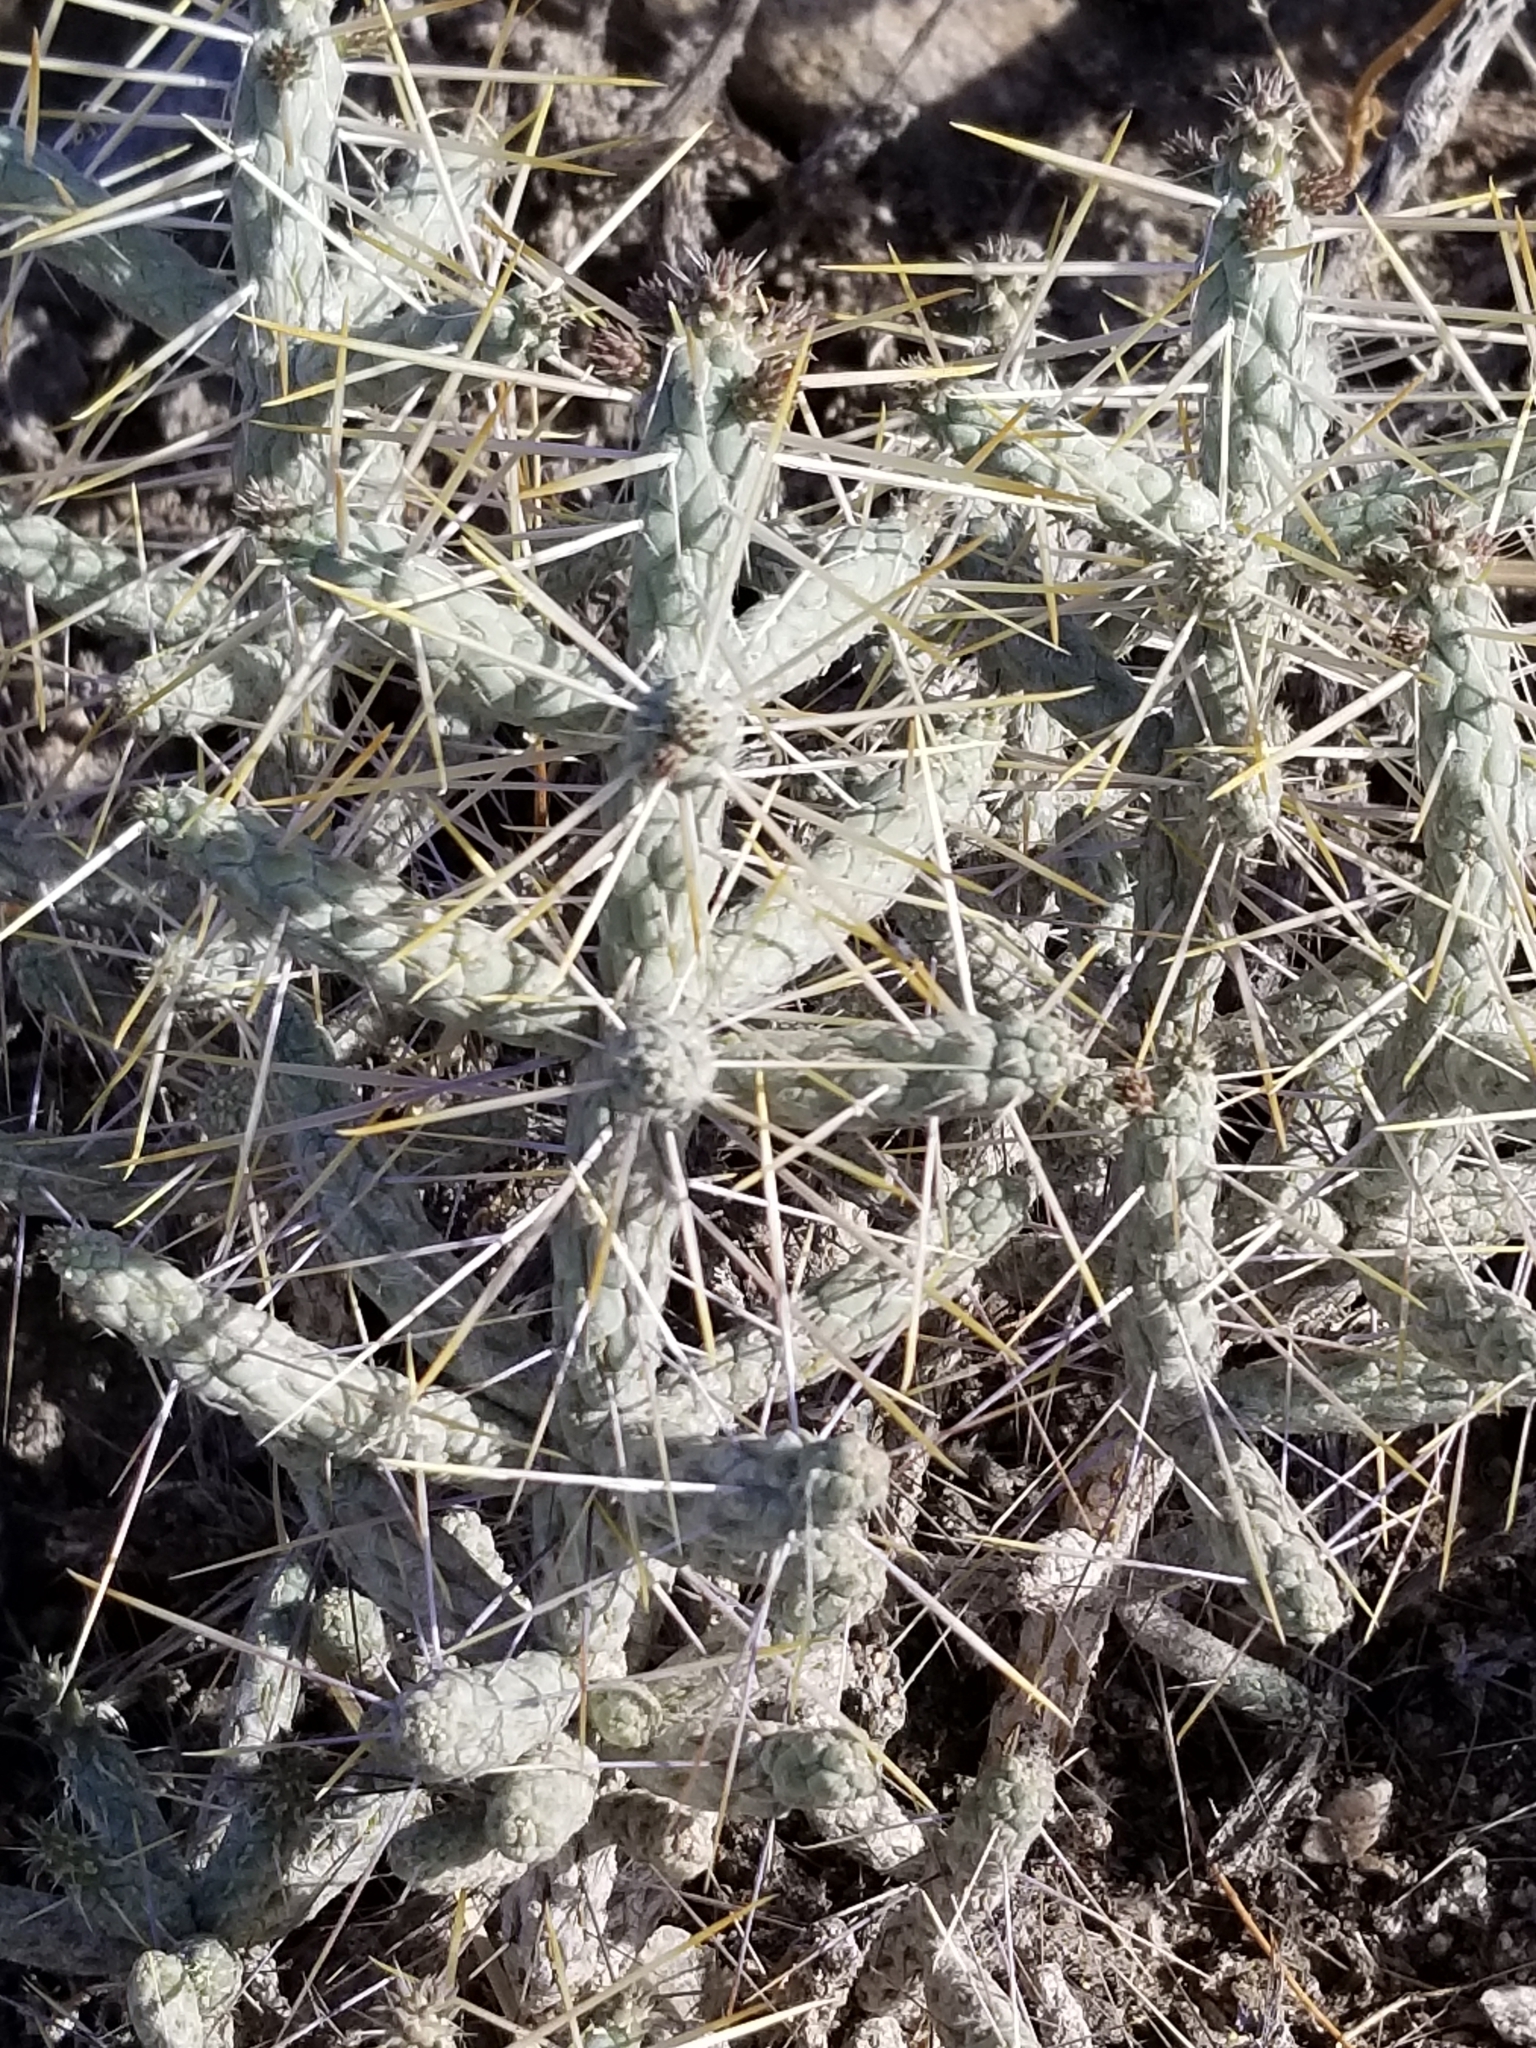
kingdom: Plantae
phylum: Tracheophyta
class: Magnoliopsida
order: Caryophyllales
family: Cactaceae
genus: Cylindropuntia
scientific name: Cylindropuntia ramosissima
